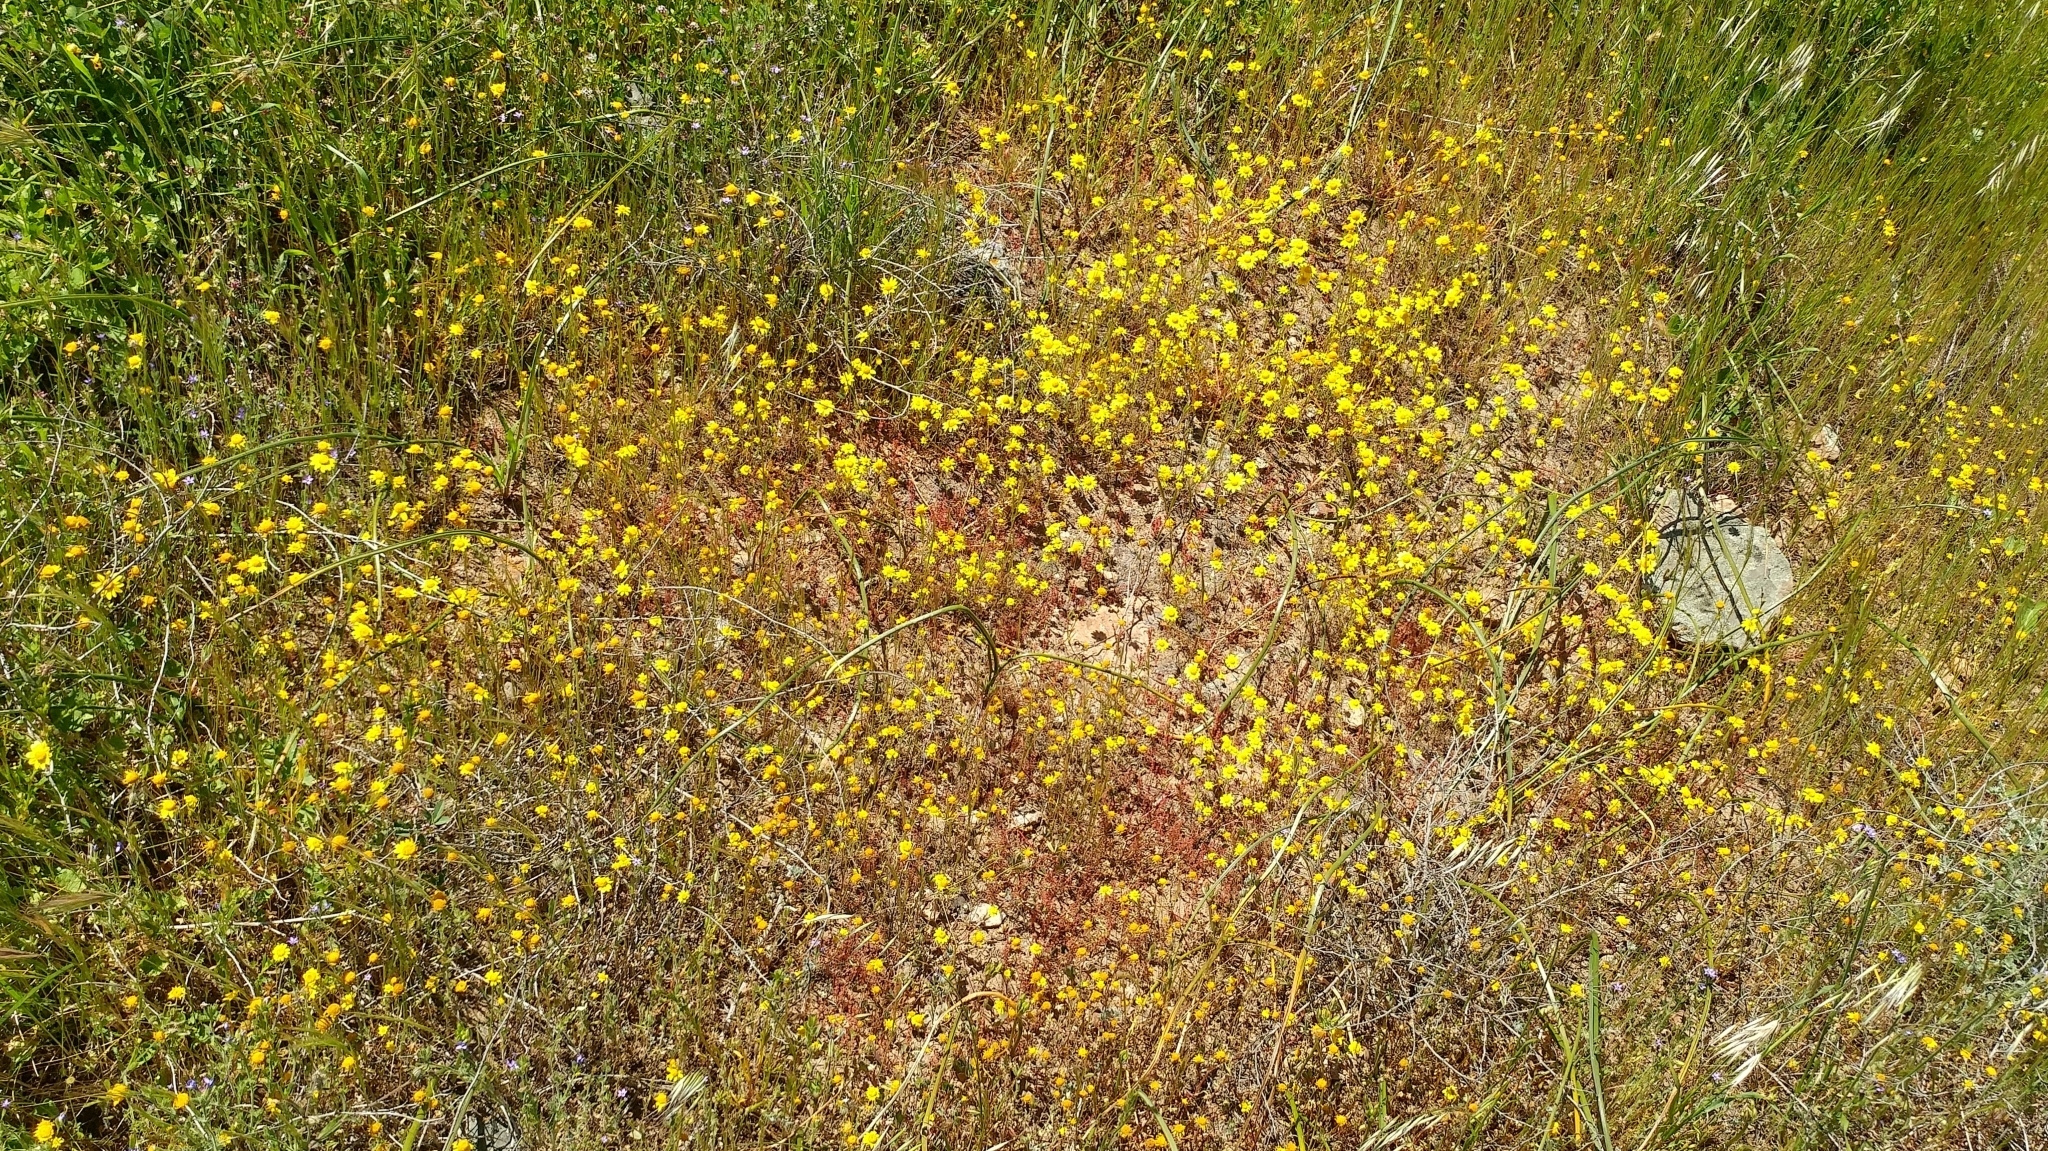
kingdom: Plantae
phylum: Tracheophyta
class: Magnoliopsida
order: Asterales
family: Asteraceae
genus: Lasthenia
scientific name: Lasthenia gracilis
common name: Common goldfields
